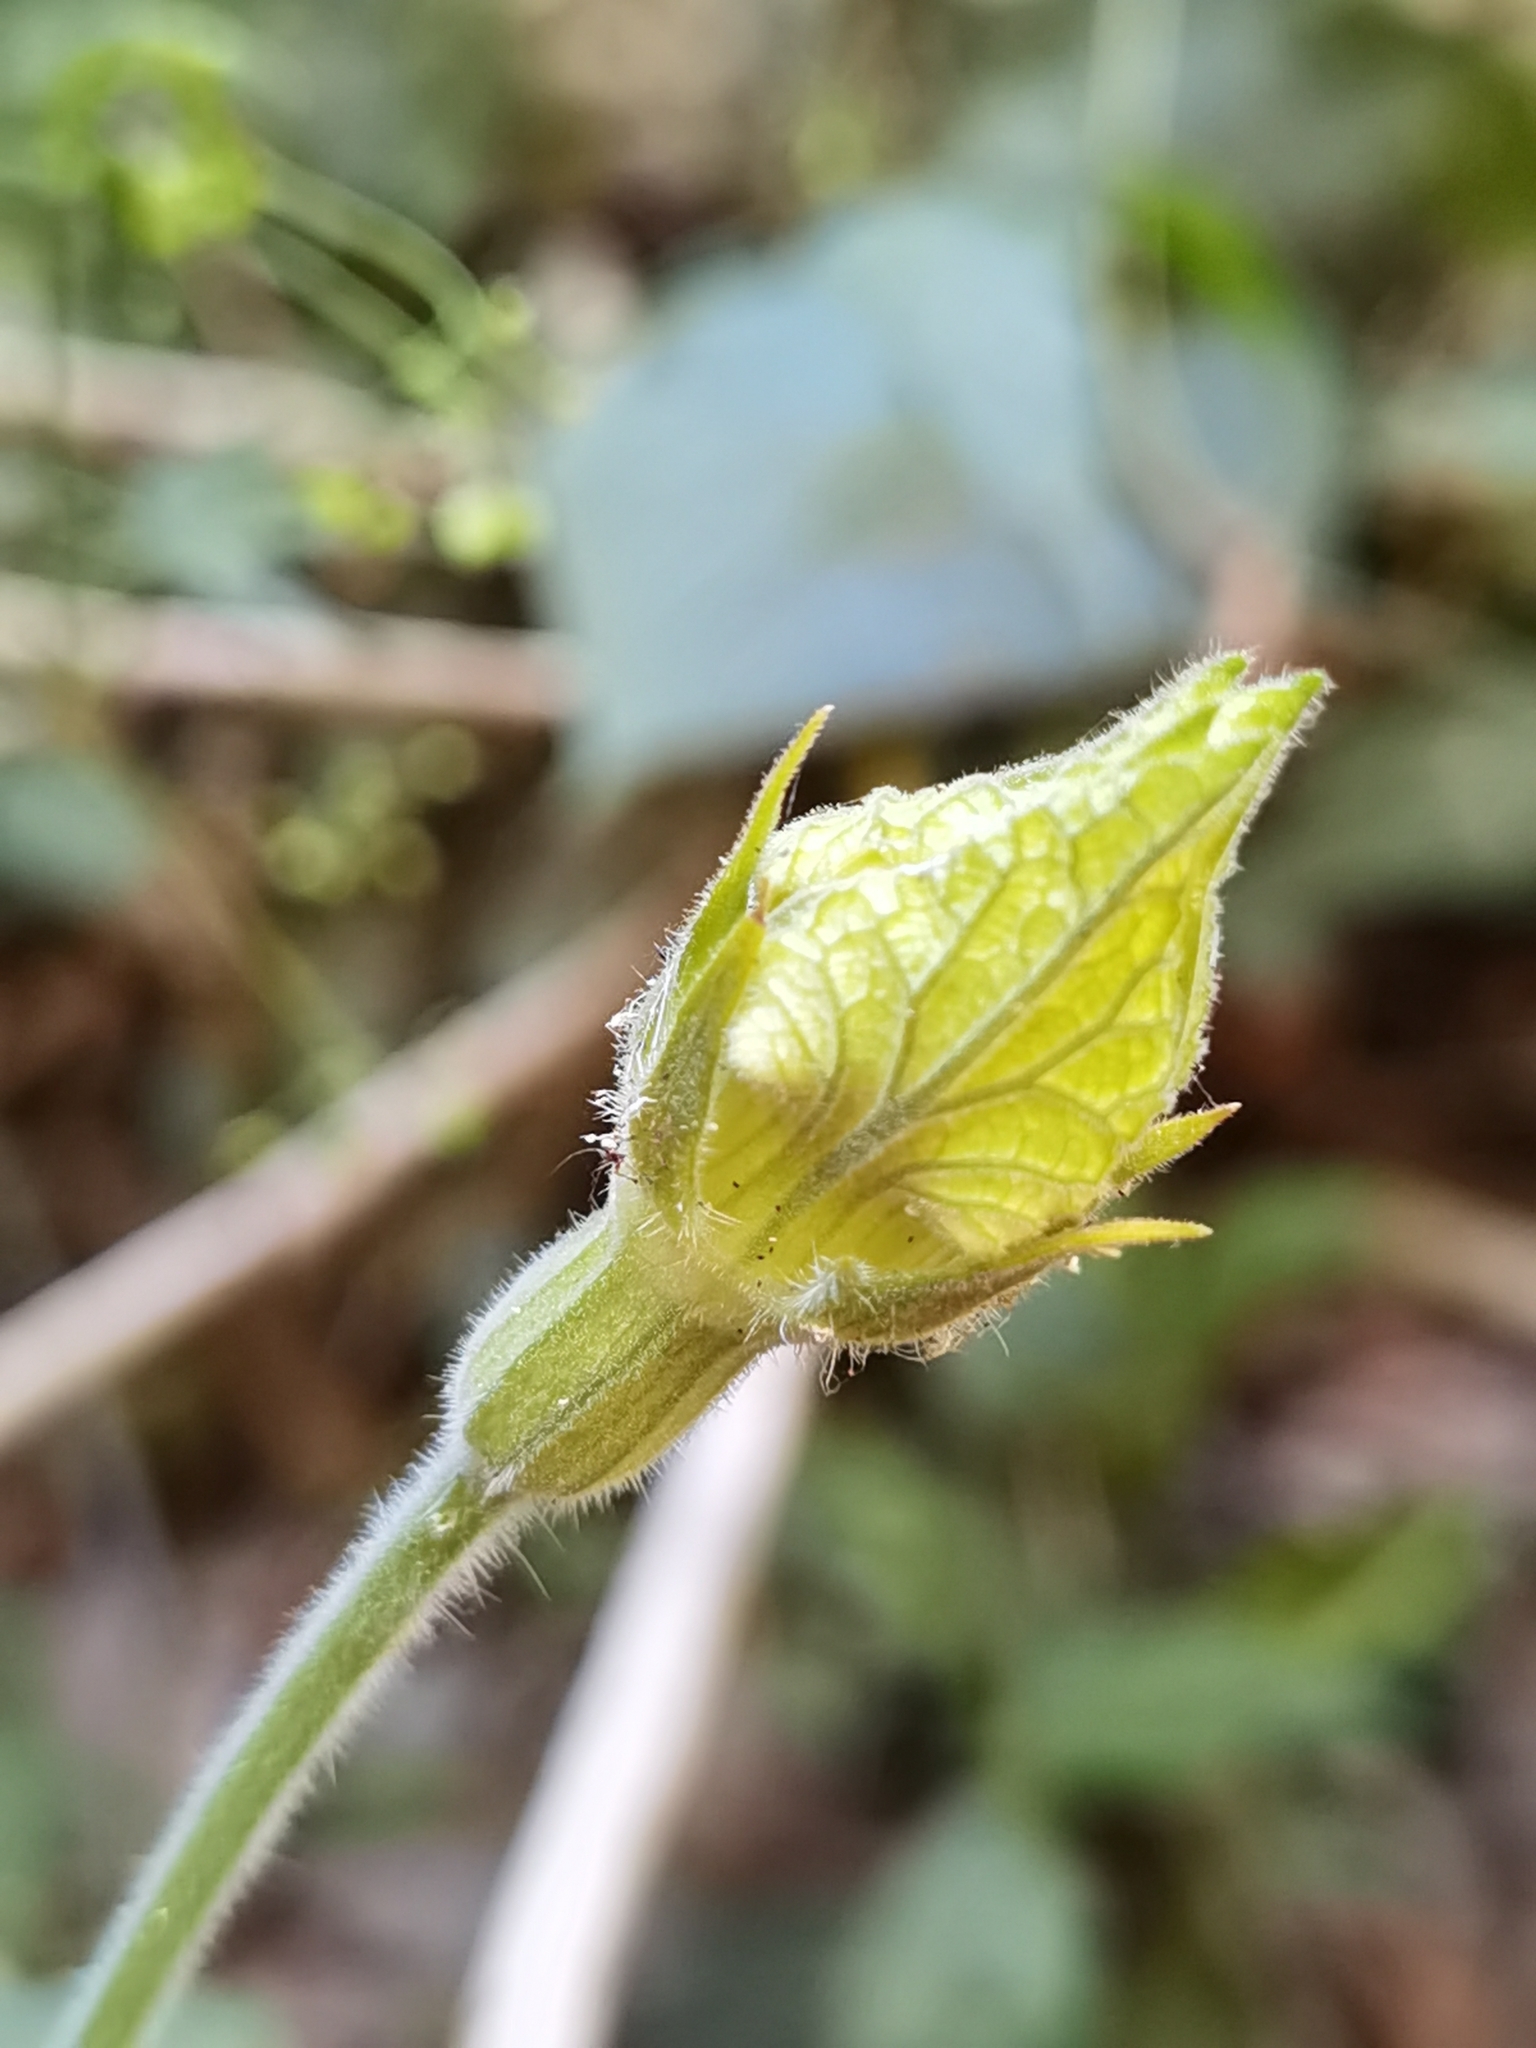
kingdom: Plantae
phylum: Tracheophyta
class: Magnoliopsida
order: Cucurbitales
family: Cucurbitaceae
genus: Polyclathra
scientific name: Polyclathra cucumerina
